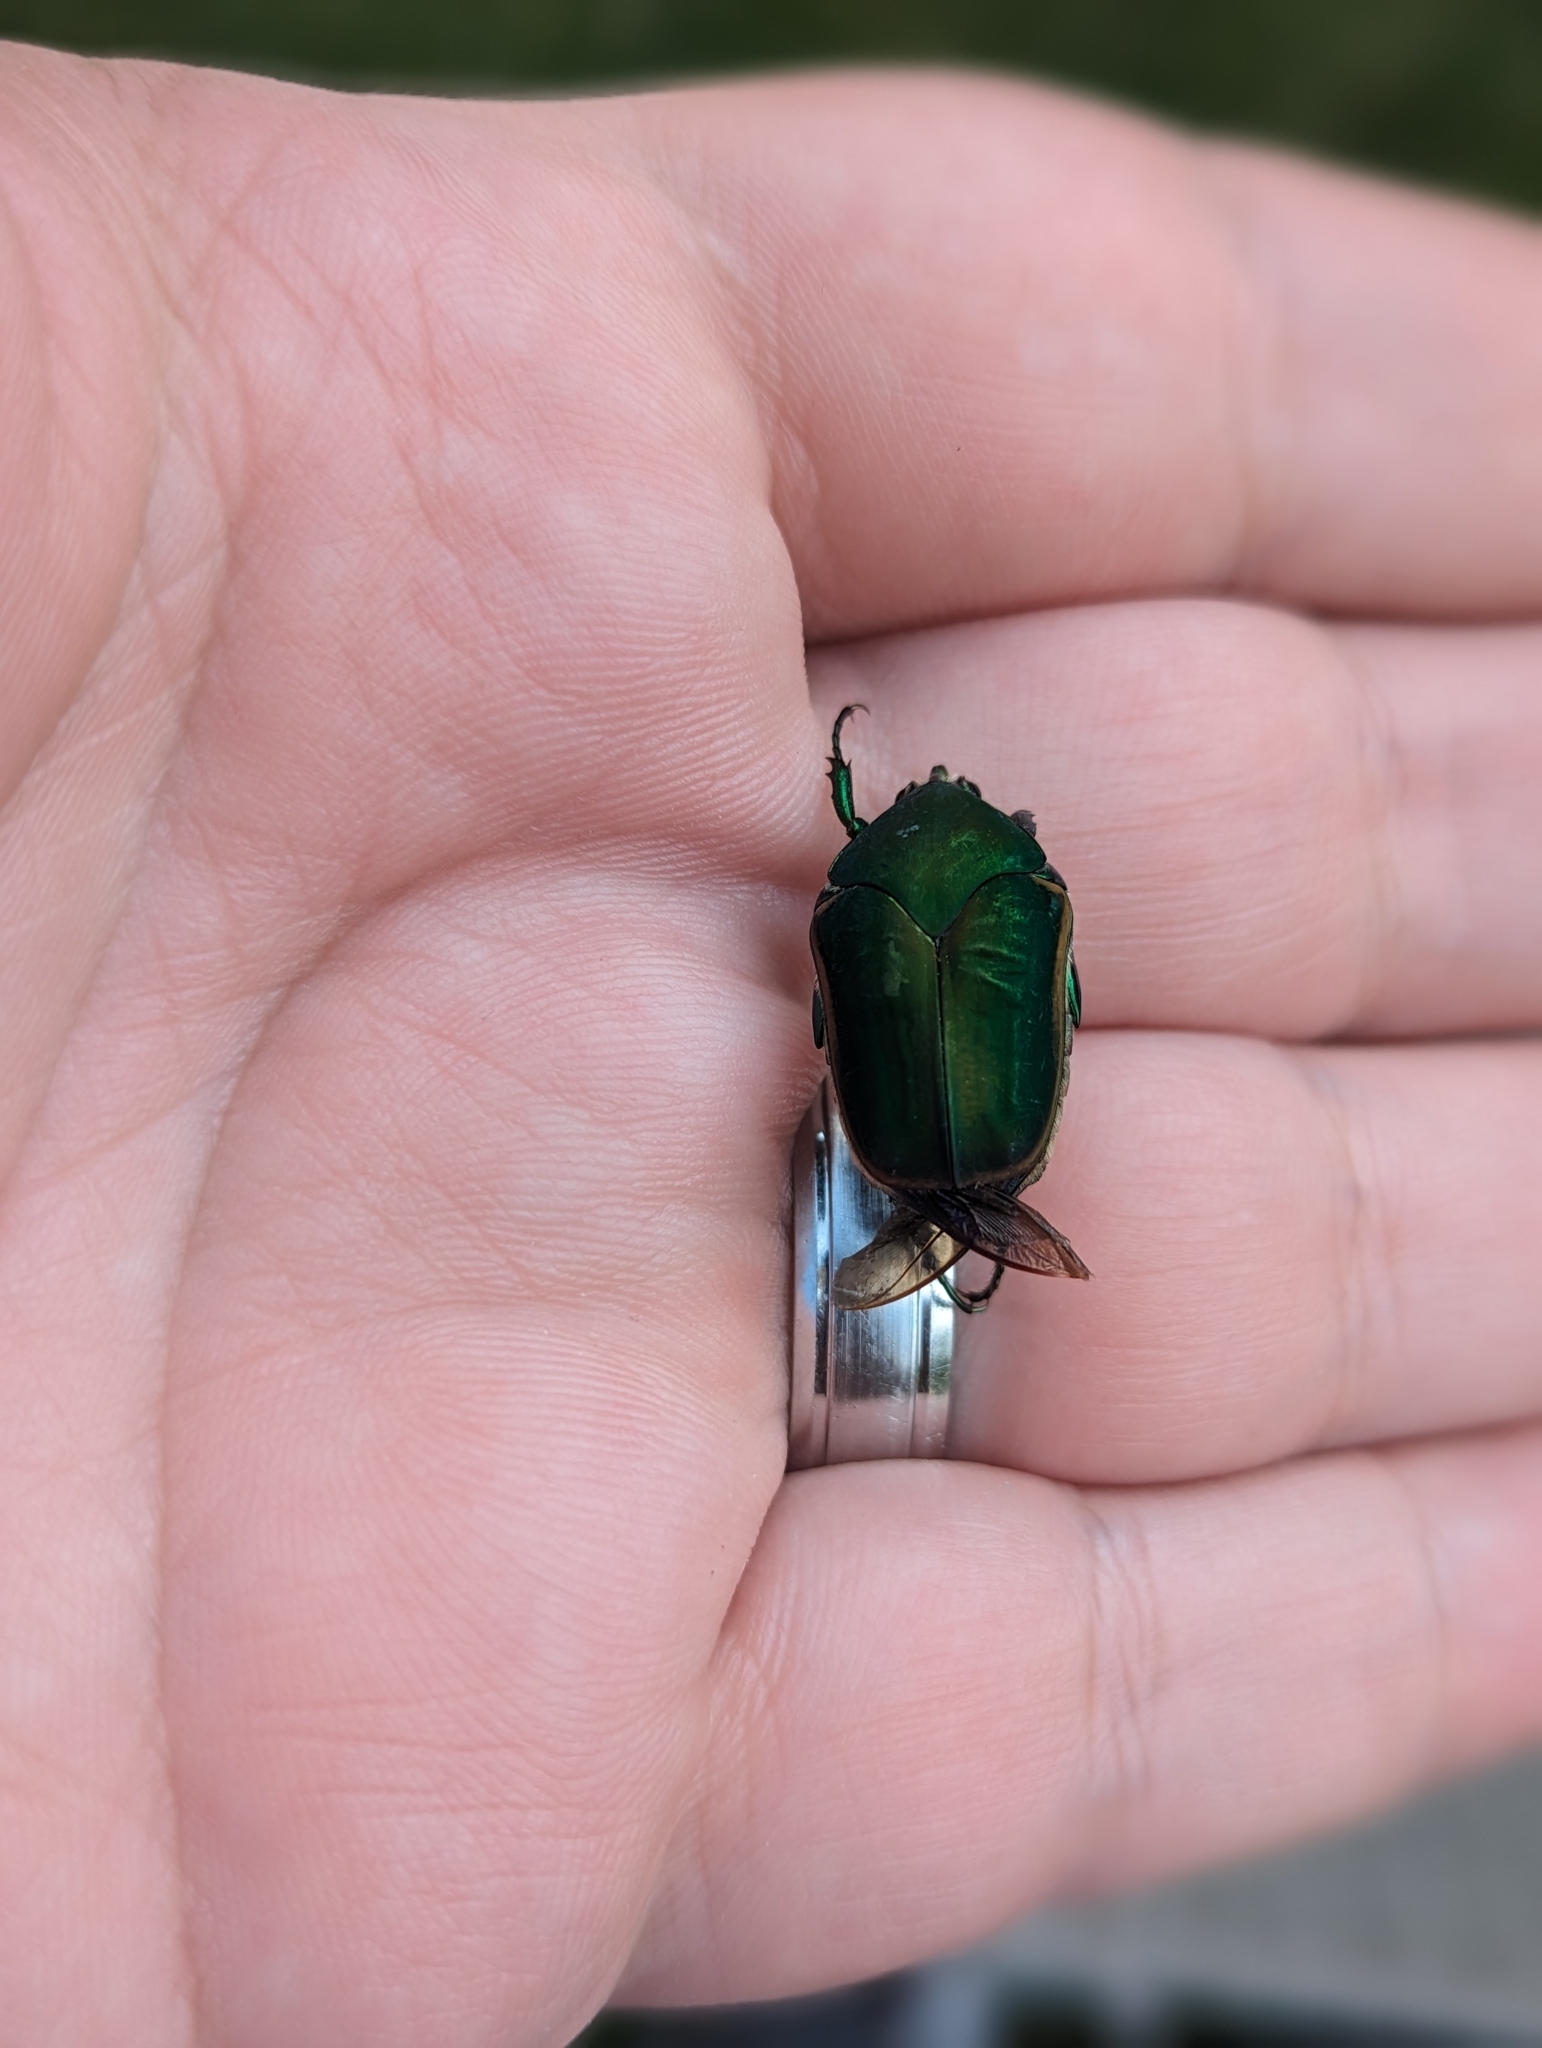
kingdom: Animalia
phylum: Arthropoda
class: Insecta
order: Coleoptera
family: Scarabaeidae
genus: Cotinis
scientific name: Cotinis nitida
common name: Common green june beetle
